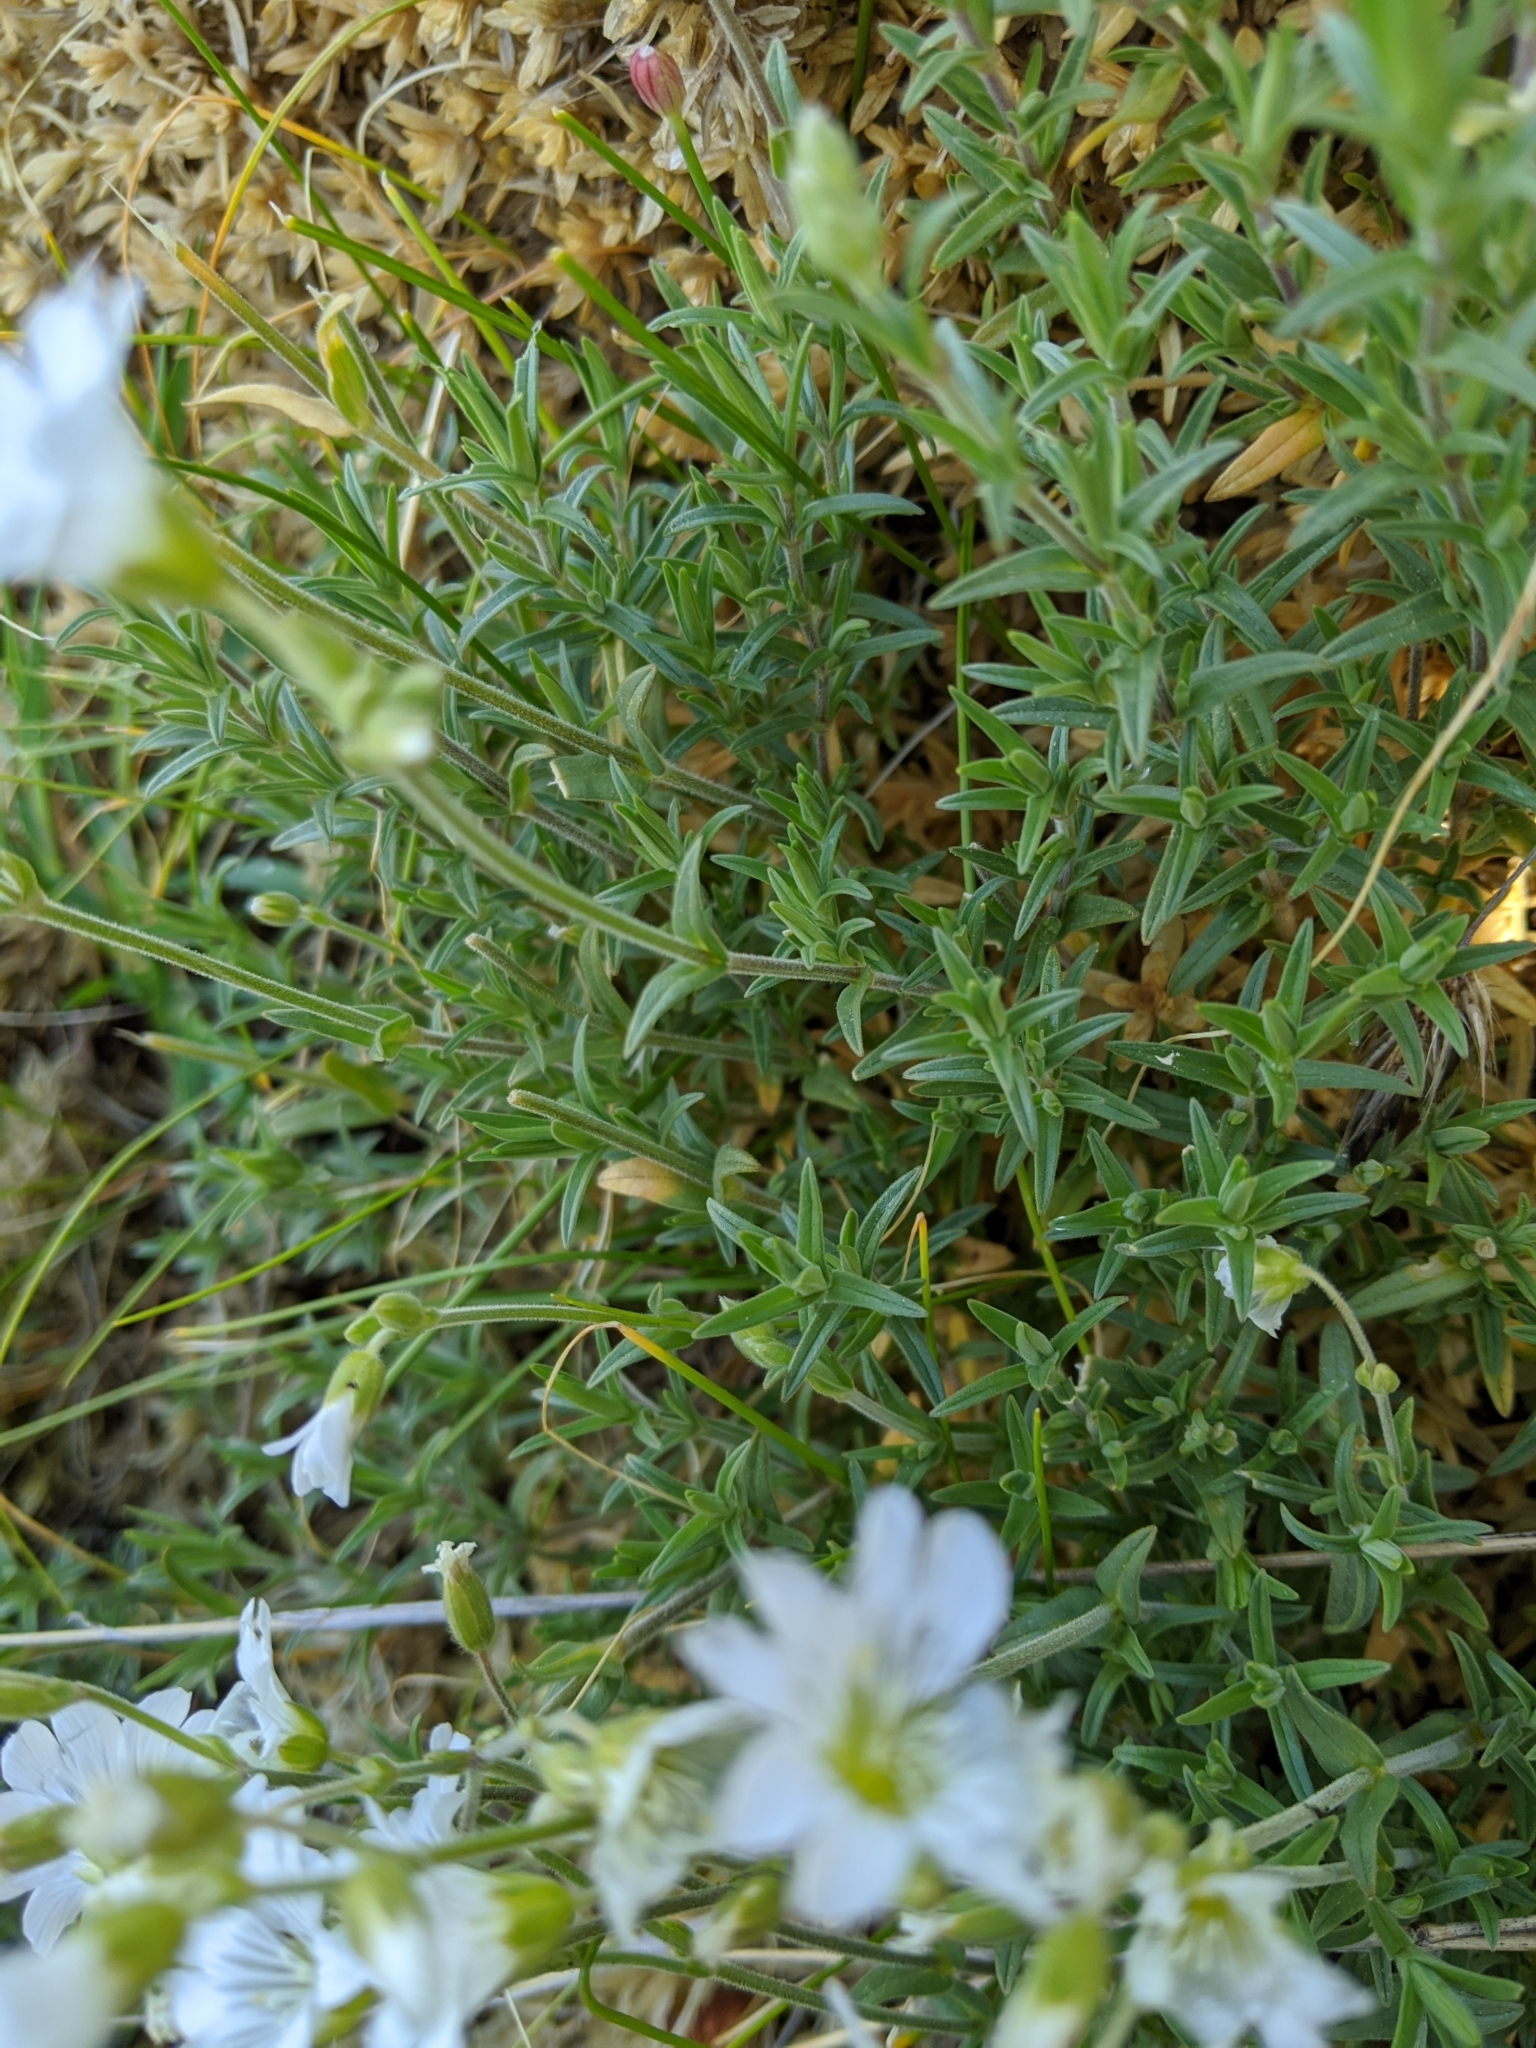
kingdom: Plantae
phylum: Tracheophyta
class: Magnoliopsida
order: Caryophyllales
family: Caryophyllaceae
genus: Cerastium
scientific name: Cerastium arvense
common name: Field mouse-ear
